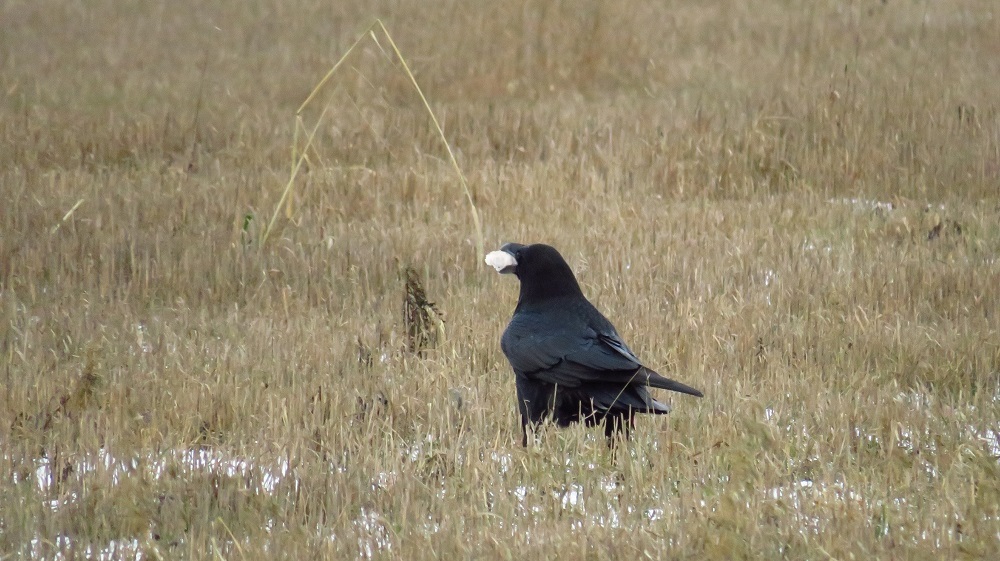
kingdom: Animalia
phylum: Chordata
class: Aves
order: Passeriformes
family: Corvidae
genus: Corvus
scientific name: Corvus corax
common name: Common raven
